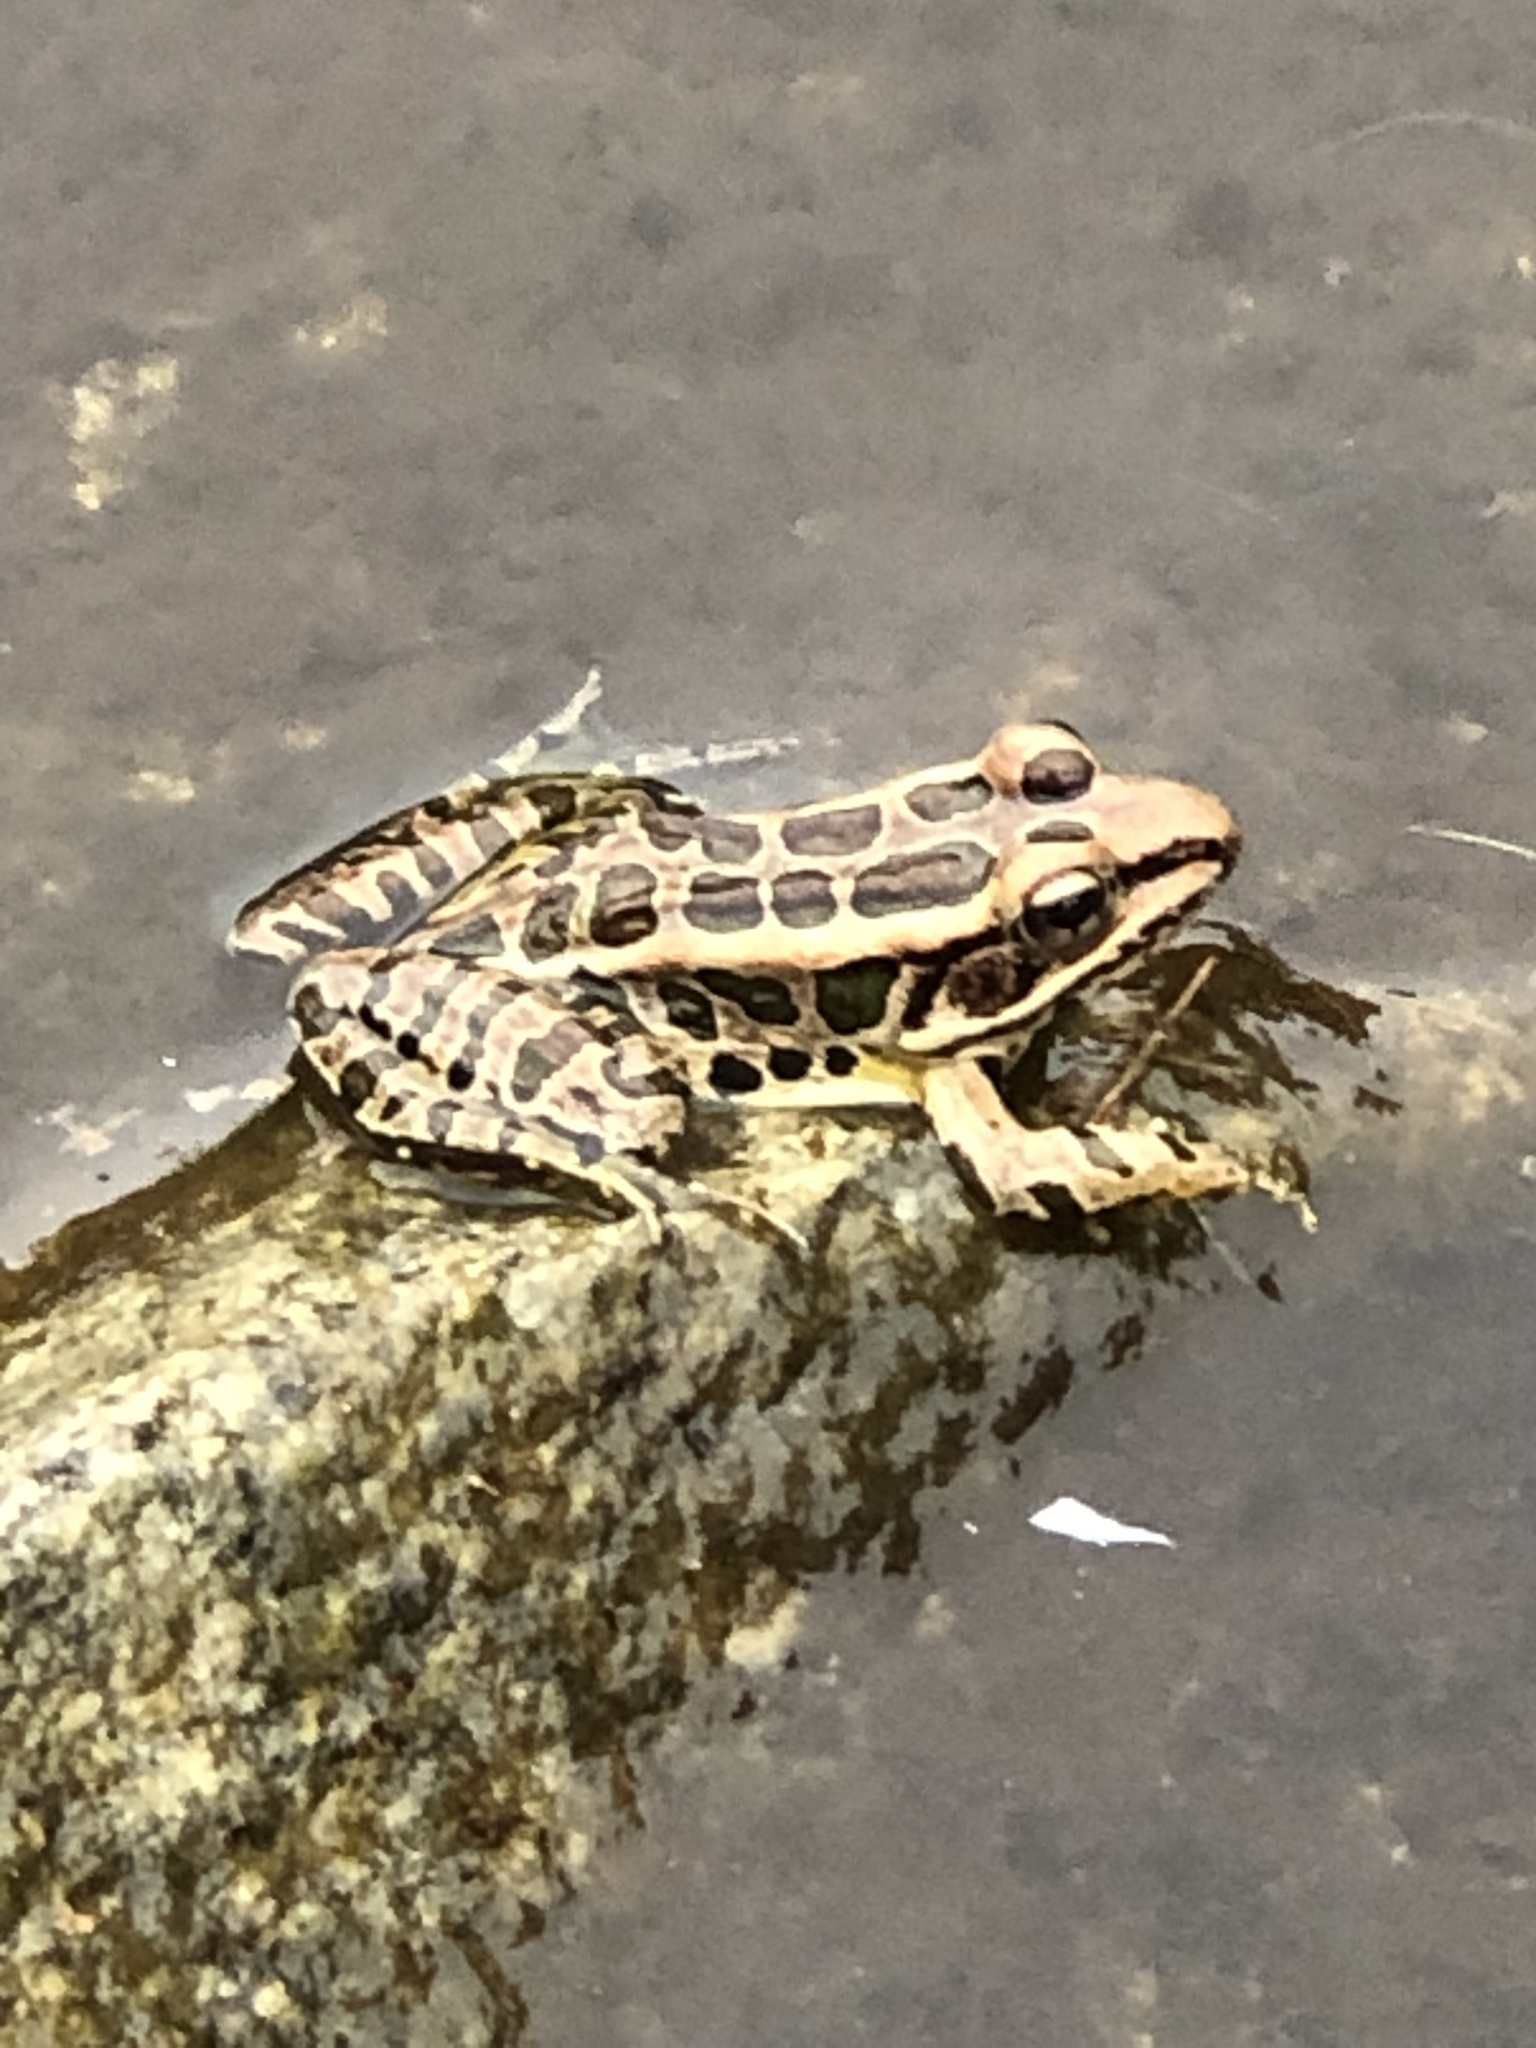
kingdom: Animalia
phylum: Chordata
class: Amphibia
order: Anura
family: Ranidae
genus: Lithobates
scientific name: Lithobates palustris
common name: Pickerel frog
